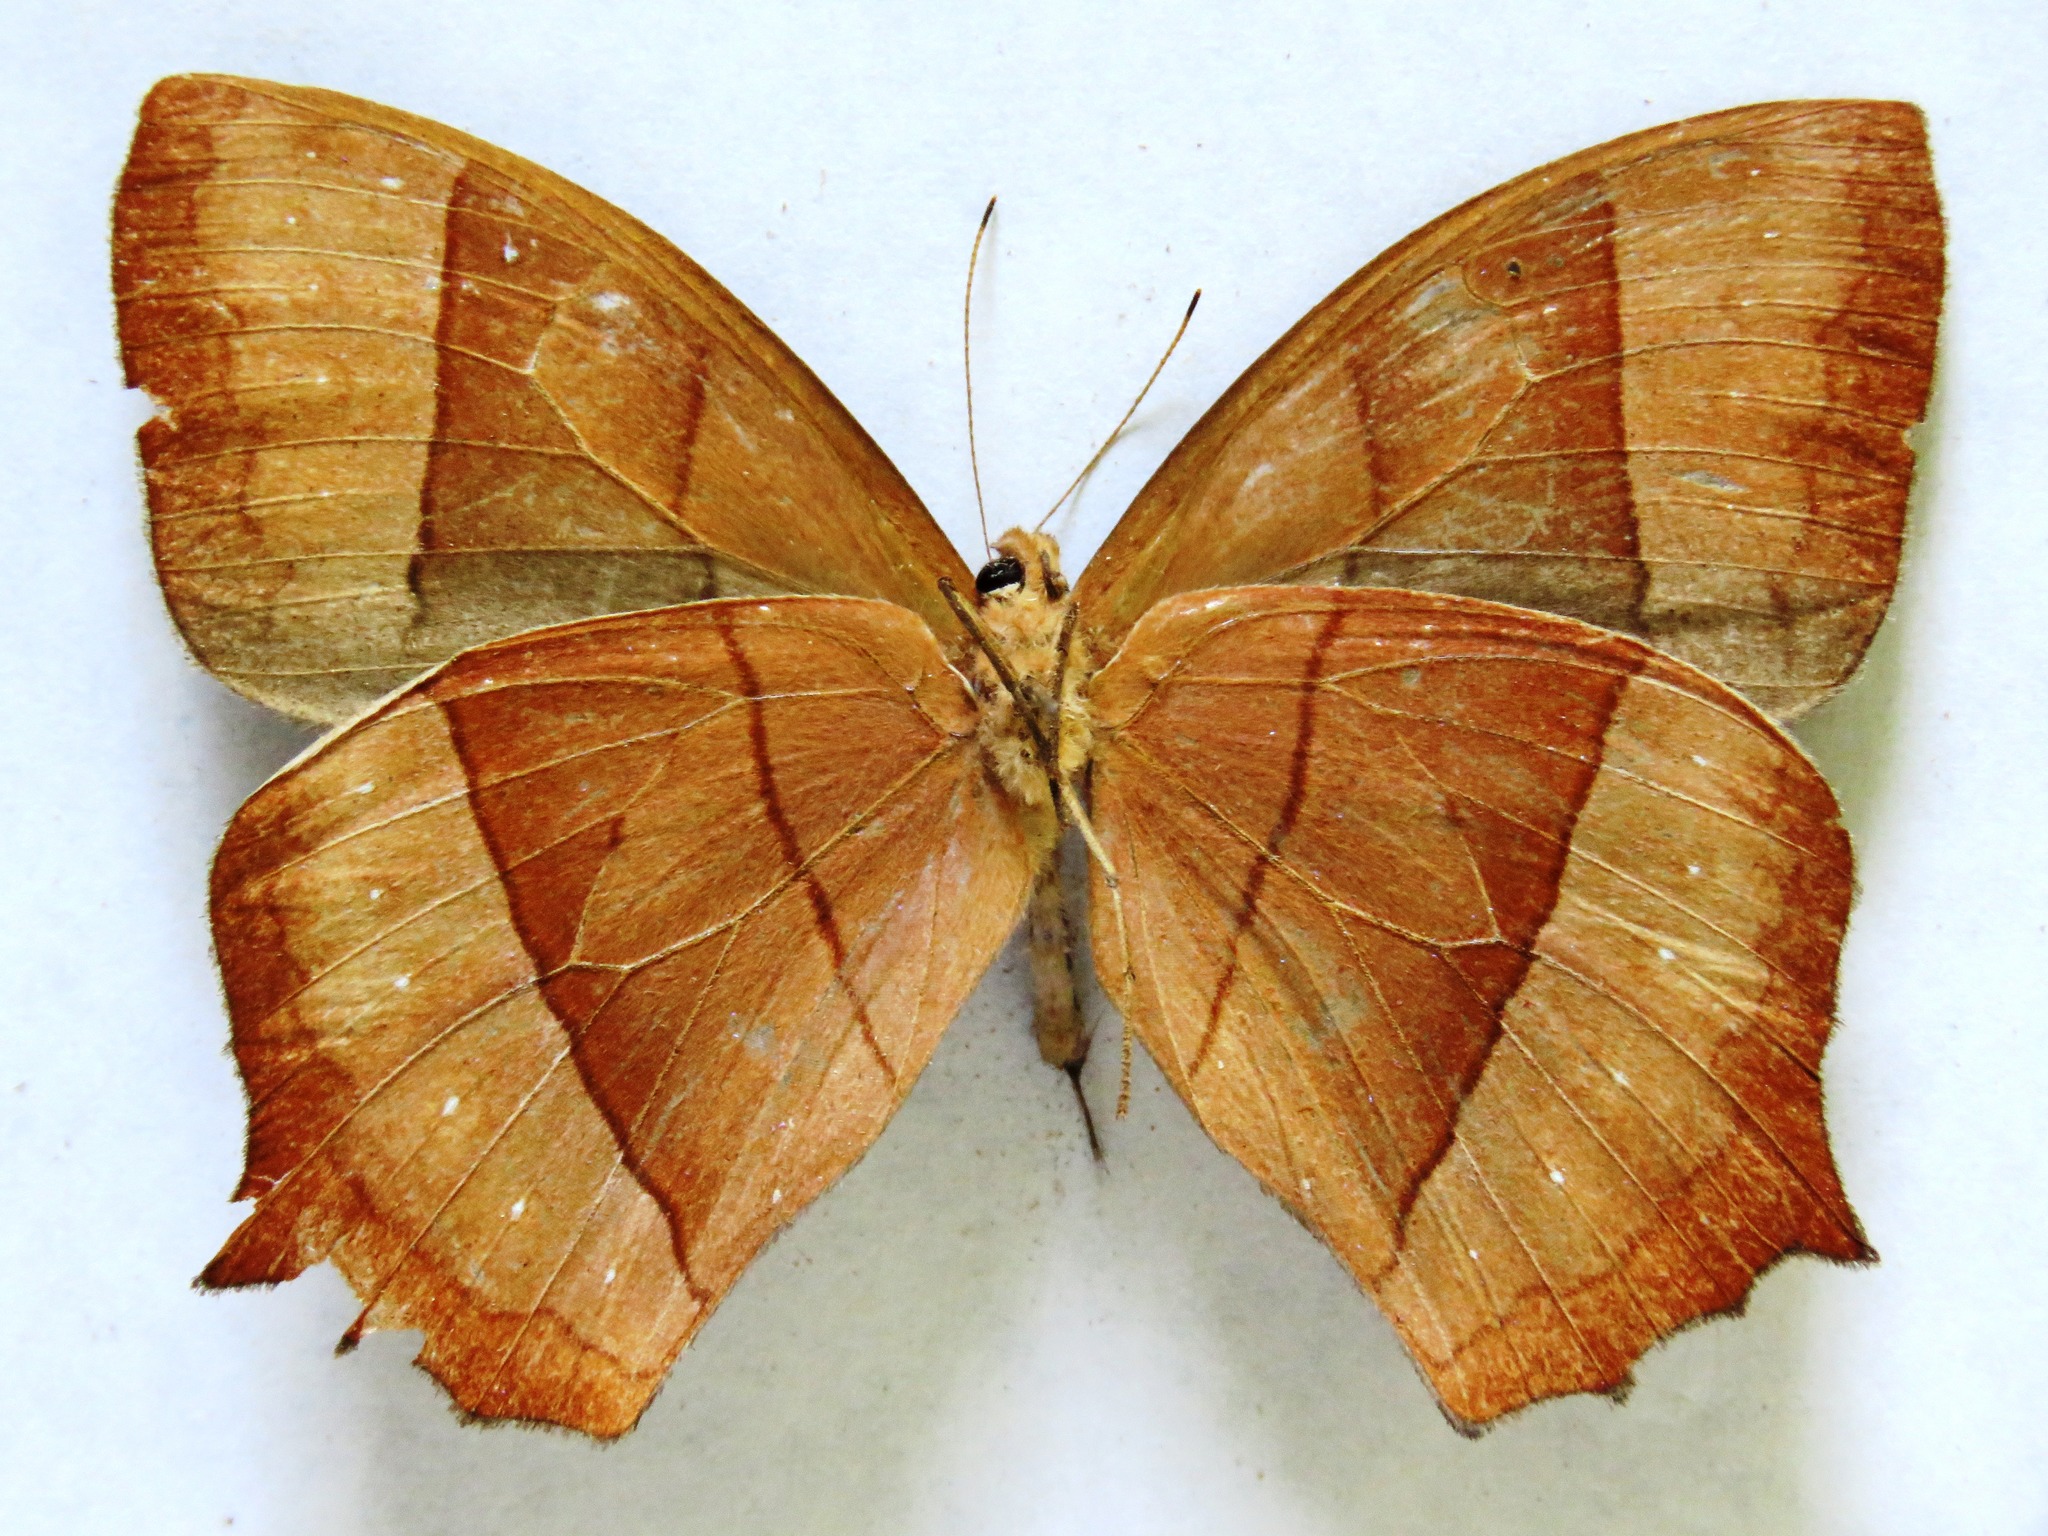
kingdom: Animalia
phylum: Arthropoda
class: Insecta
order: Lepidoptera
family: Nymphalidae
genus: Taygetis
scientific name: Taygetis virgilia
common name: Stub-tailed satyr
